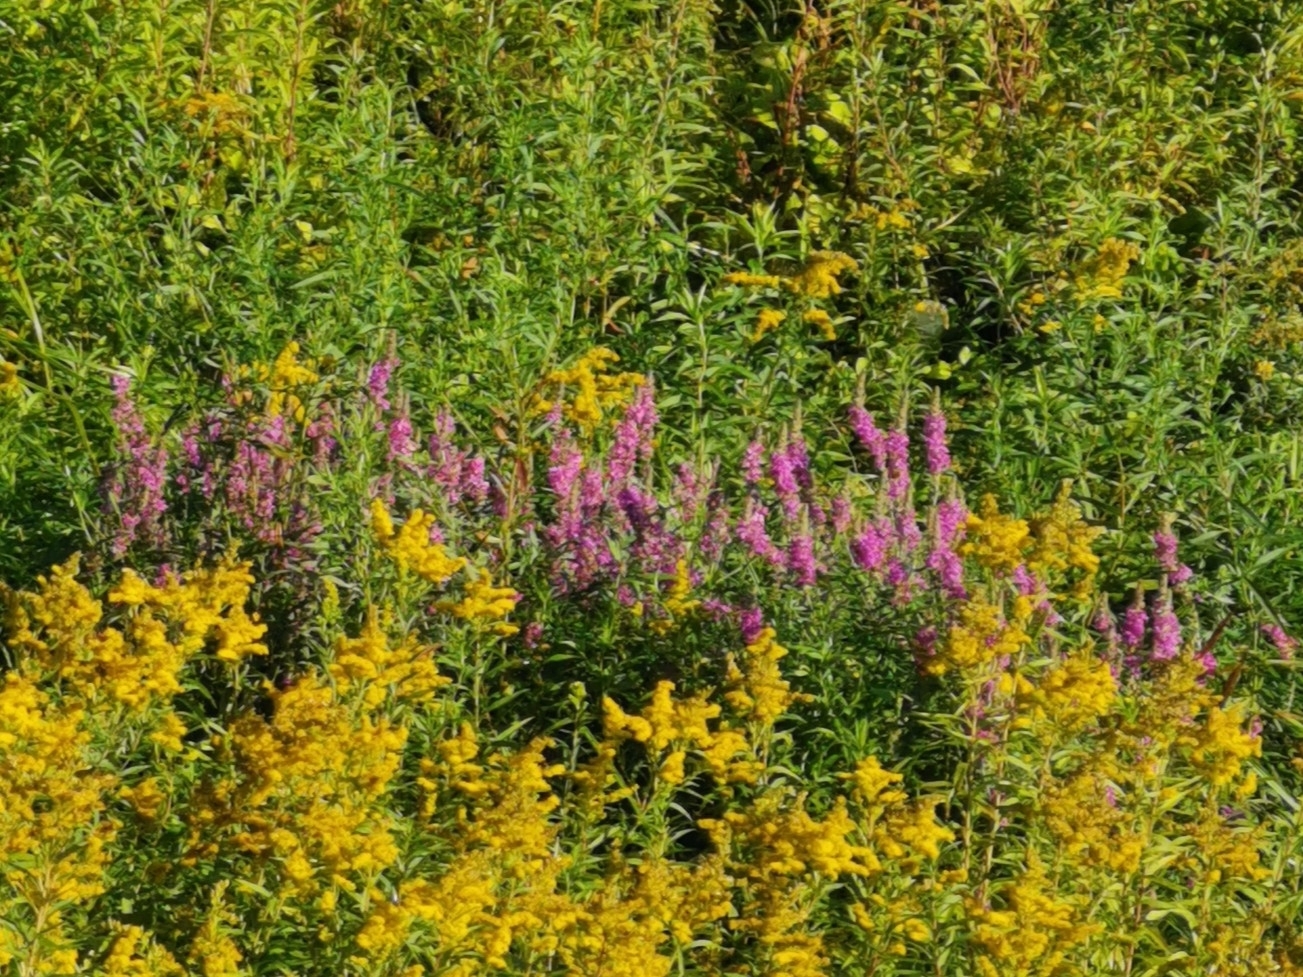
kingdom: Plantae
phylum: Tracheophyta
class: Magnoliopsida
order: Myrtales
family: Lythraceae
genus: Lythrum
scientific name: Lythrum salicaria
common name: Purple loosestrife
